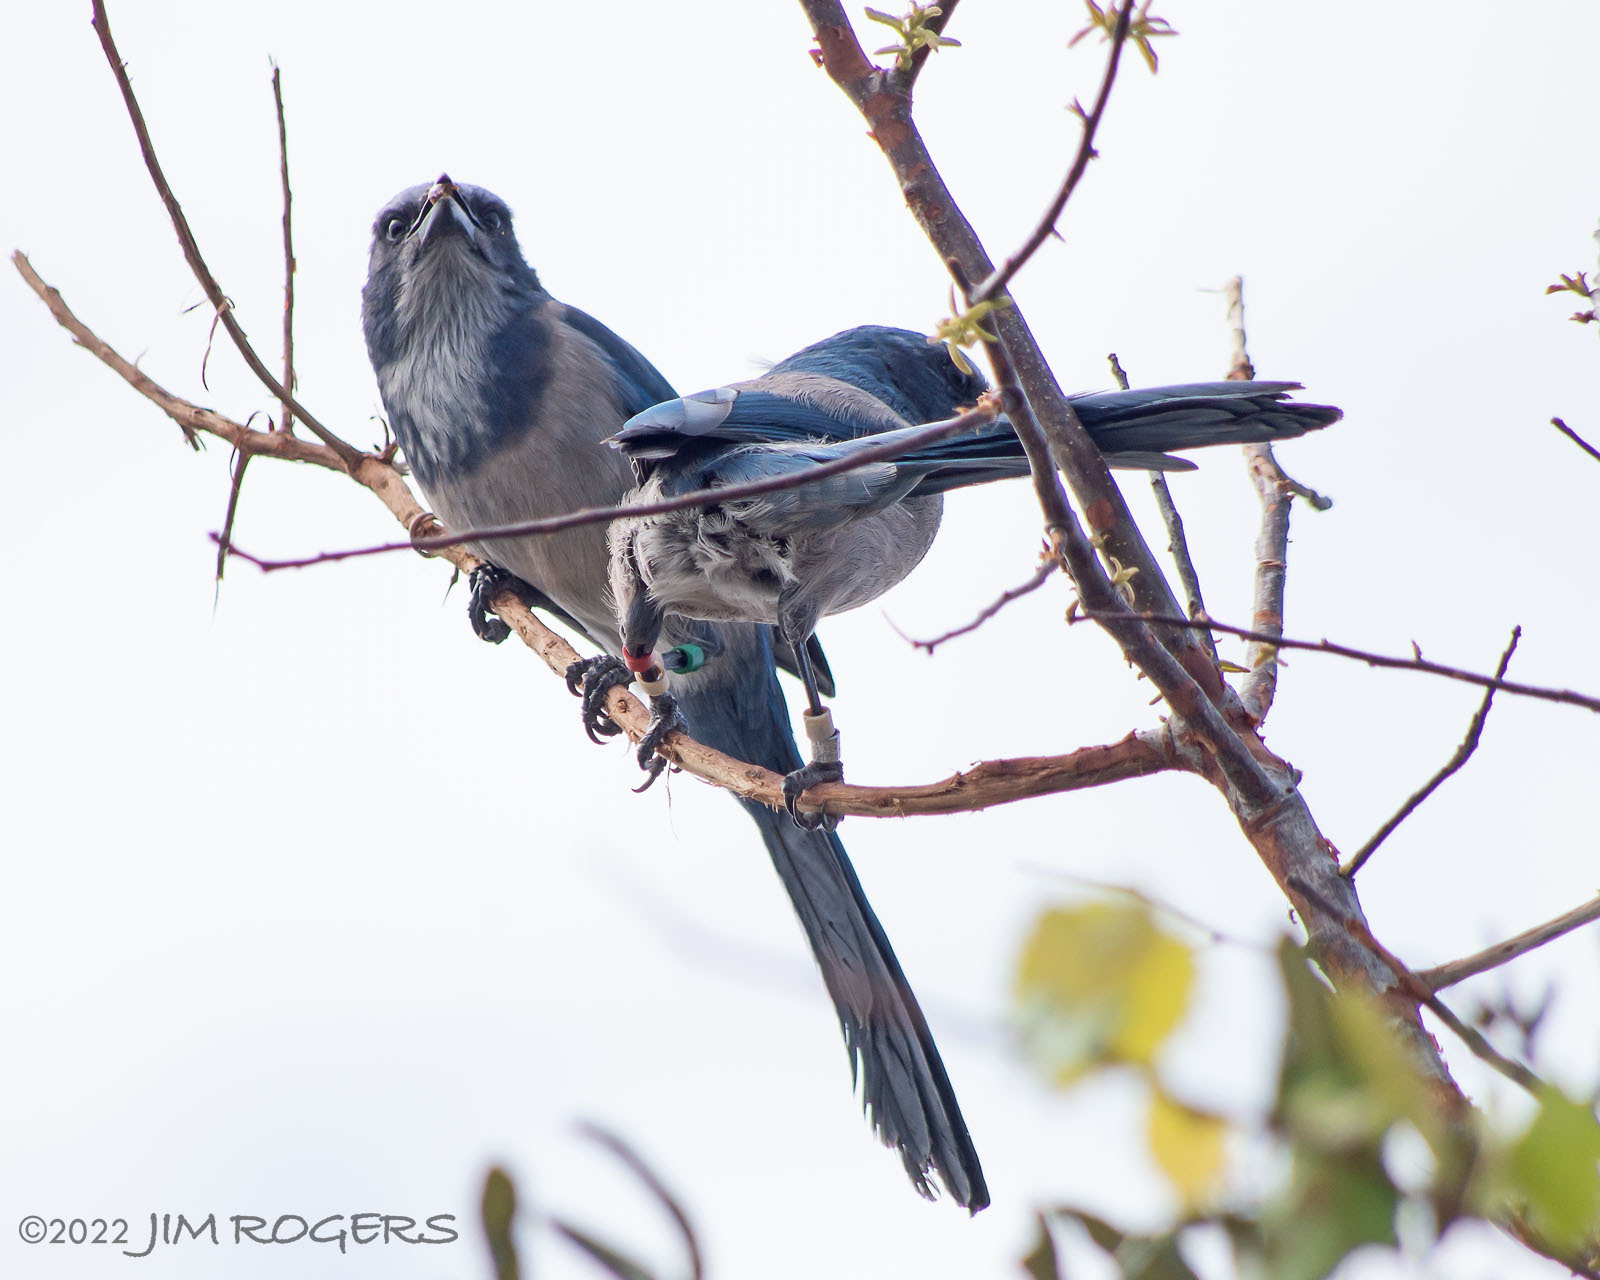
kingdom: Animalia
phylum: Chordata
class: Aves
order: Passeriformes
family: Corvidae
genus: Aphelocoma
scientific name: Aphelocoma coerulescens
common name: Florida scrub jay
